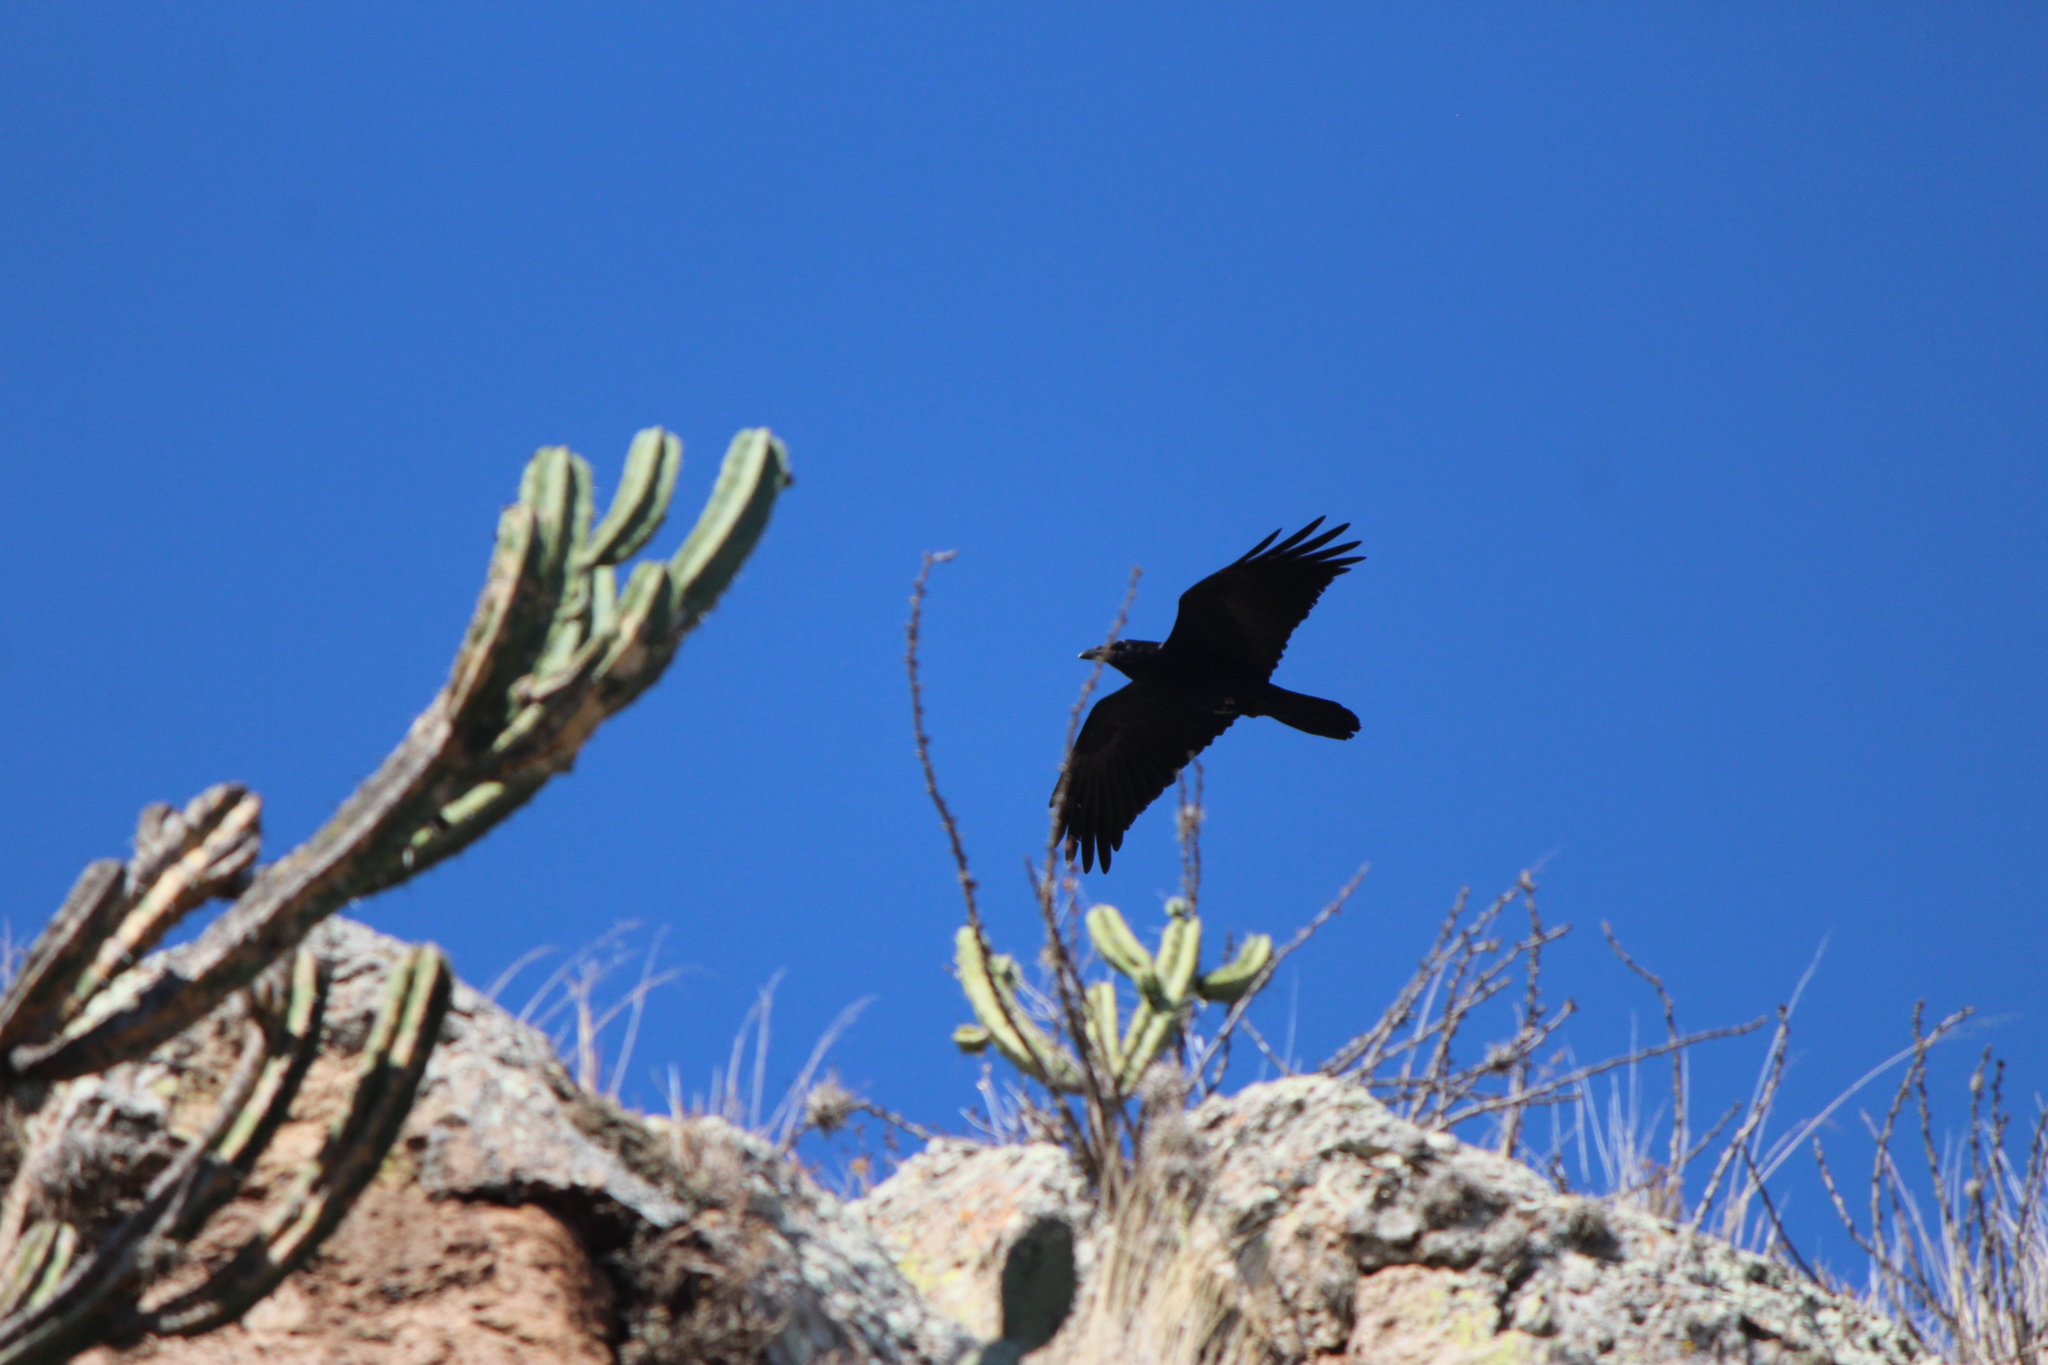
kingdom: Animalia
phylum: Chordata
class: Aves
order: Passeriformes
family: Corvidae
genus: Corvus
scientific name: Corvus corax
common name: Common raven
